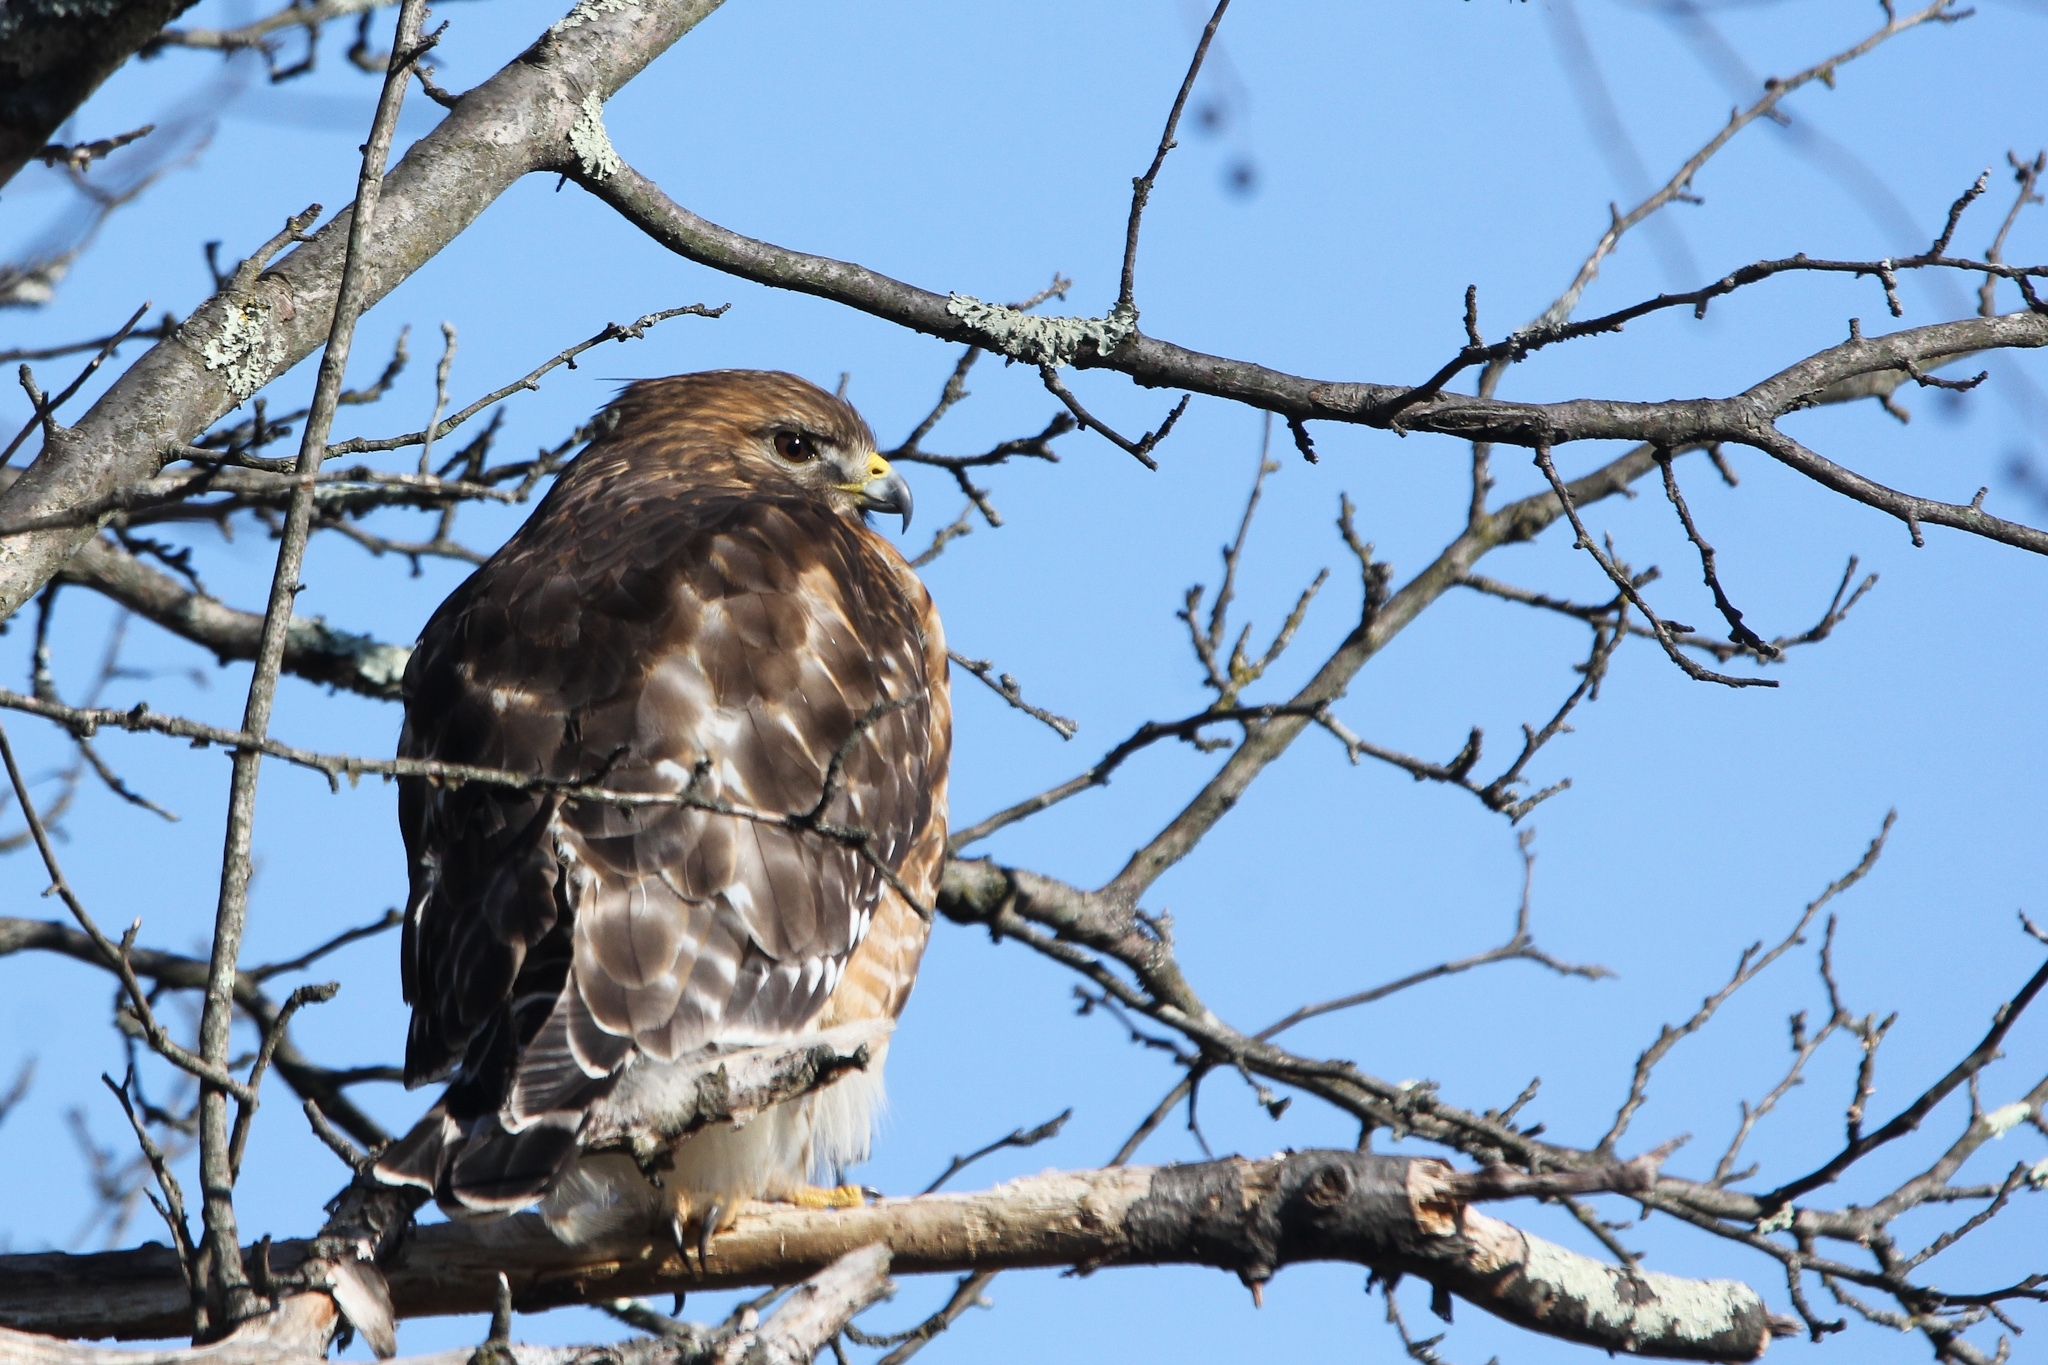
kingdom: Animalia
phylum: Chordata
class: Aves
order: Accipitriformes
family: Accipitridae
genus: Buteo
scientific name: Buteo lineatus
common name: Red-shouldered hawk
